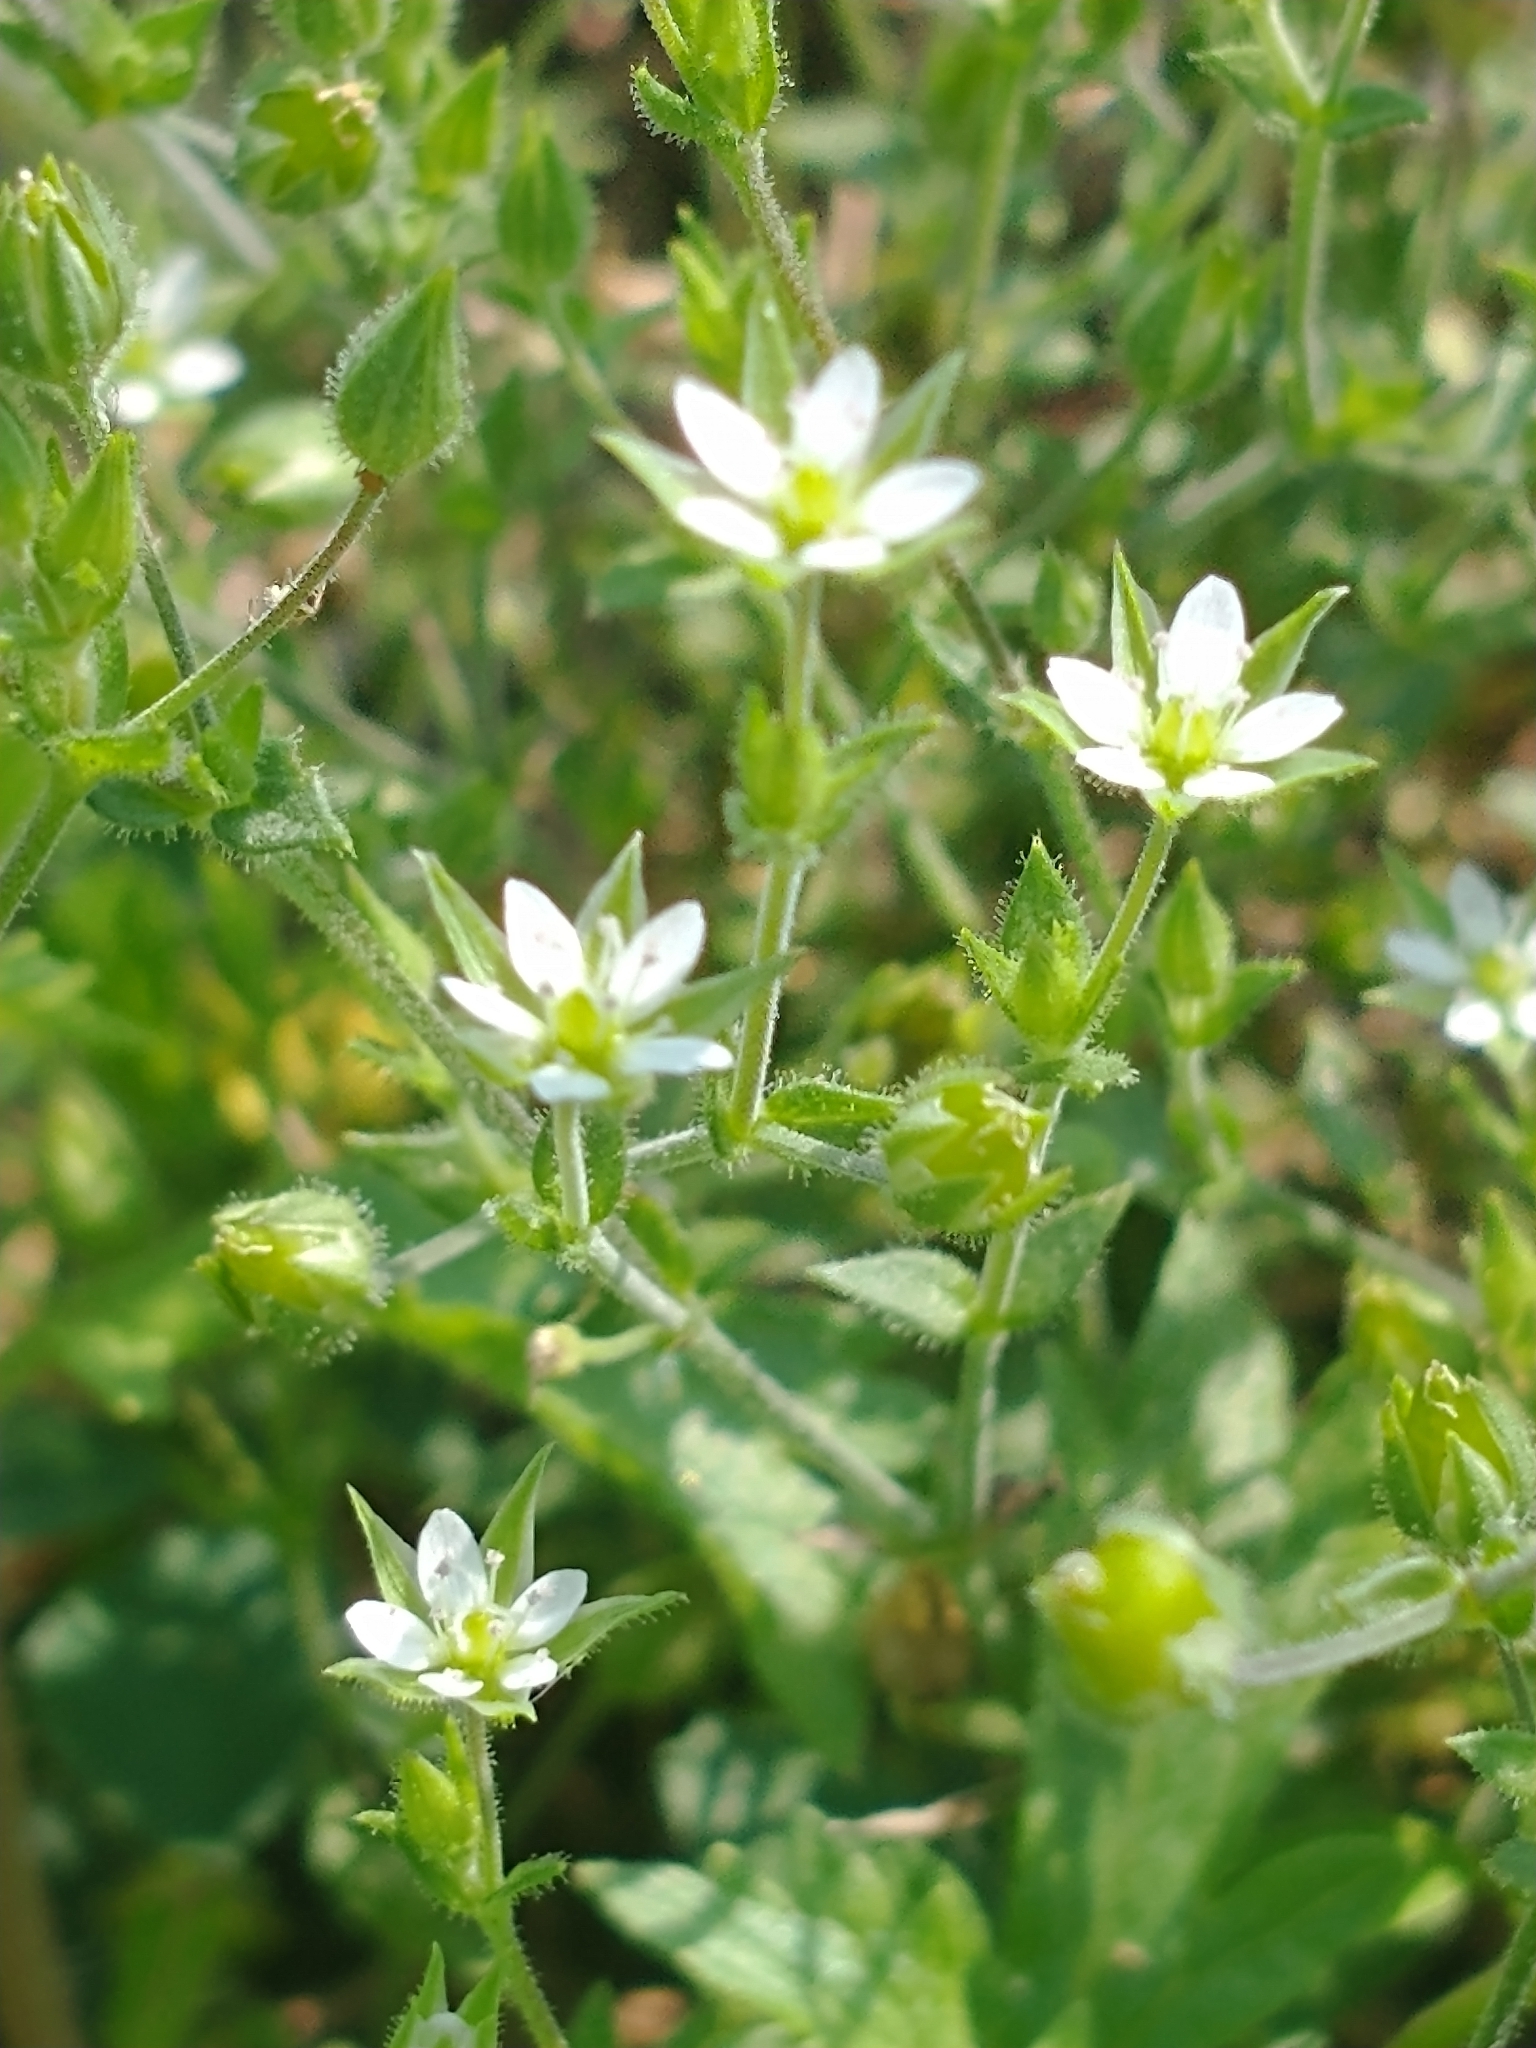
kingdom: Plantae
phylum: Tracheophyta
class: Magnoliopsida
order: Caryophyllales
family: Caryophyllaceae
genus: Arenaria
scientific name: Arenaria serpyllifolia
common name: Thyme-leaved sandwort
